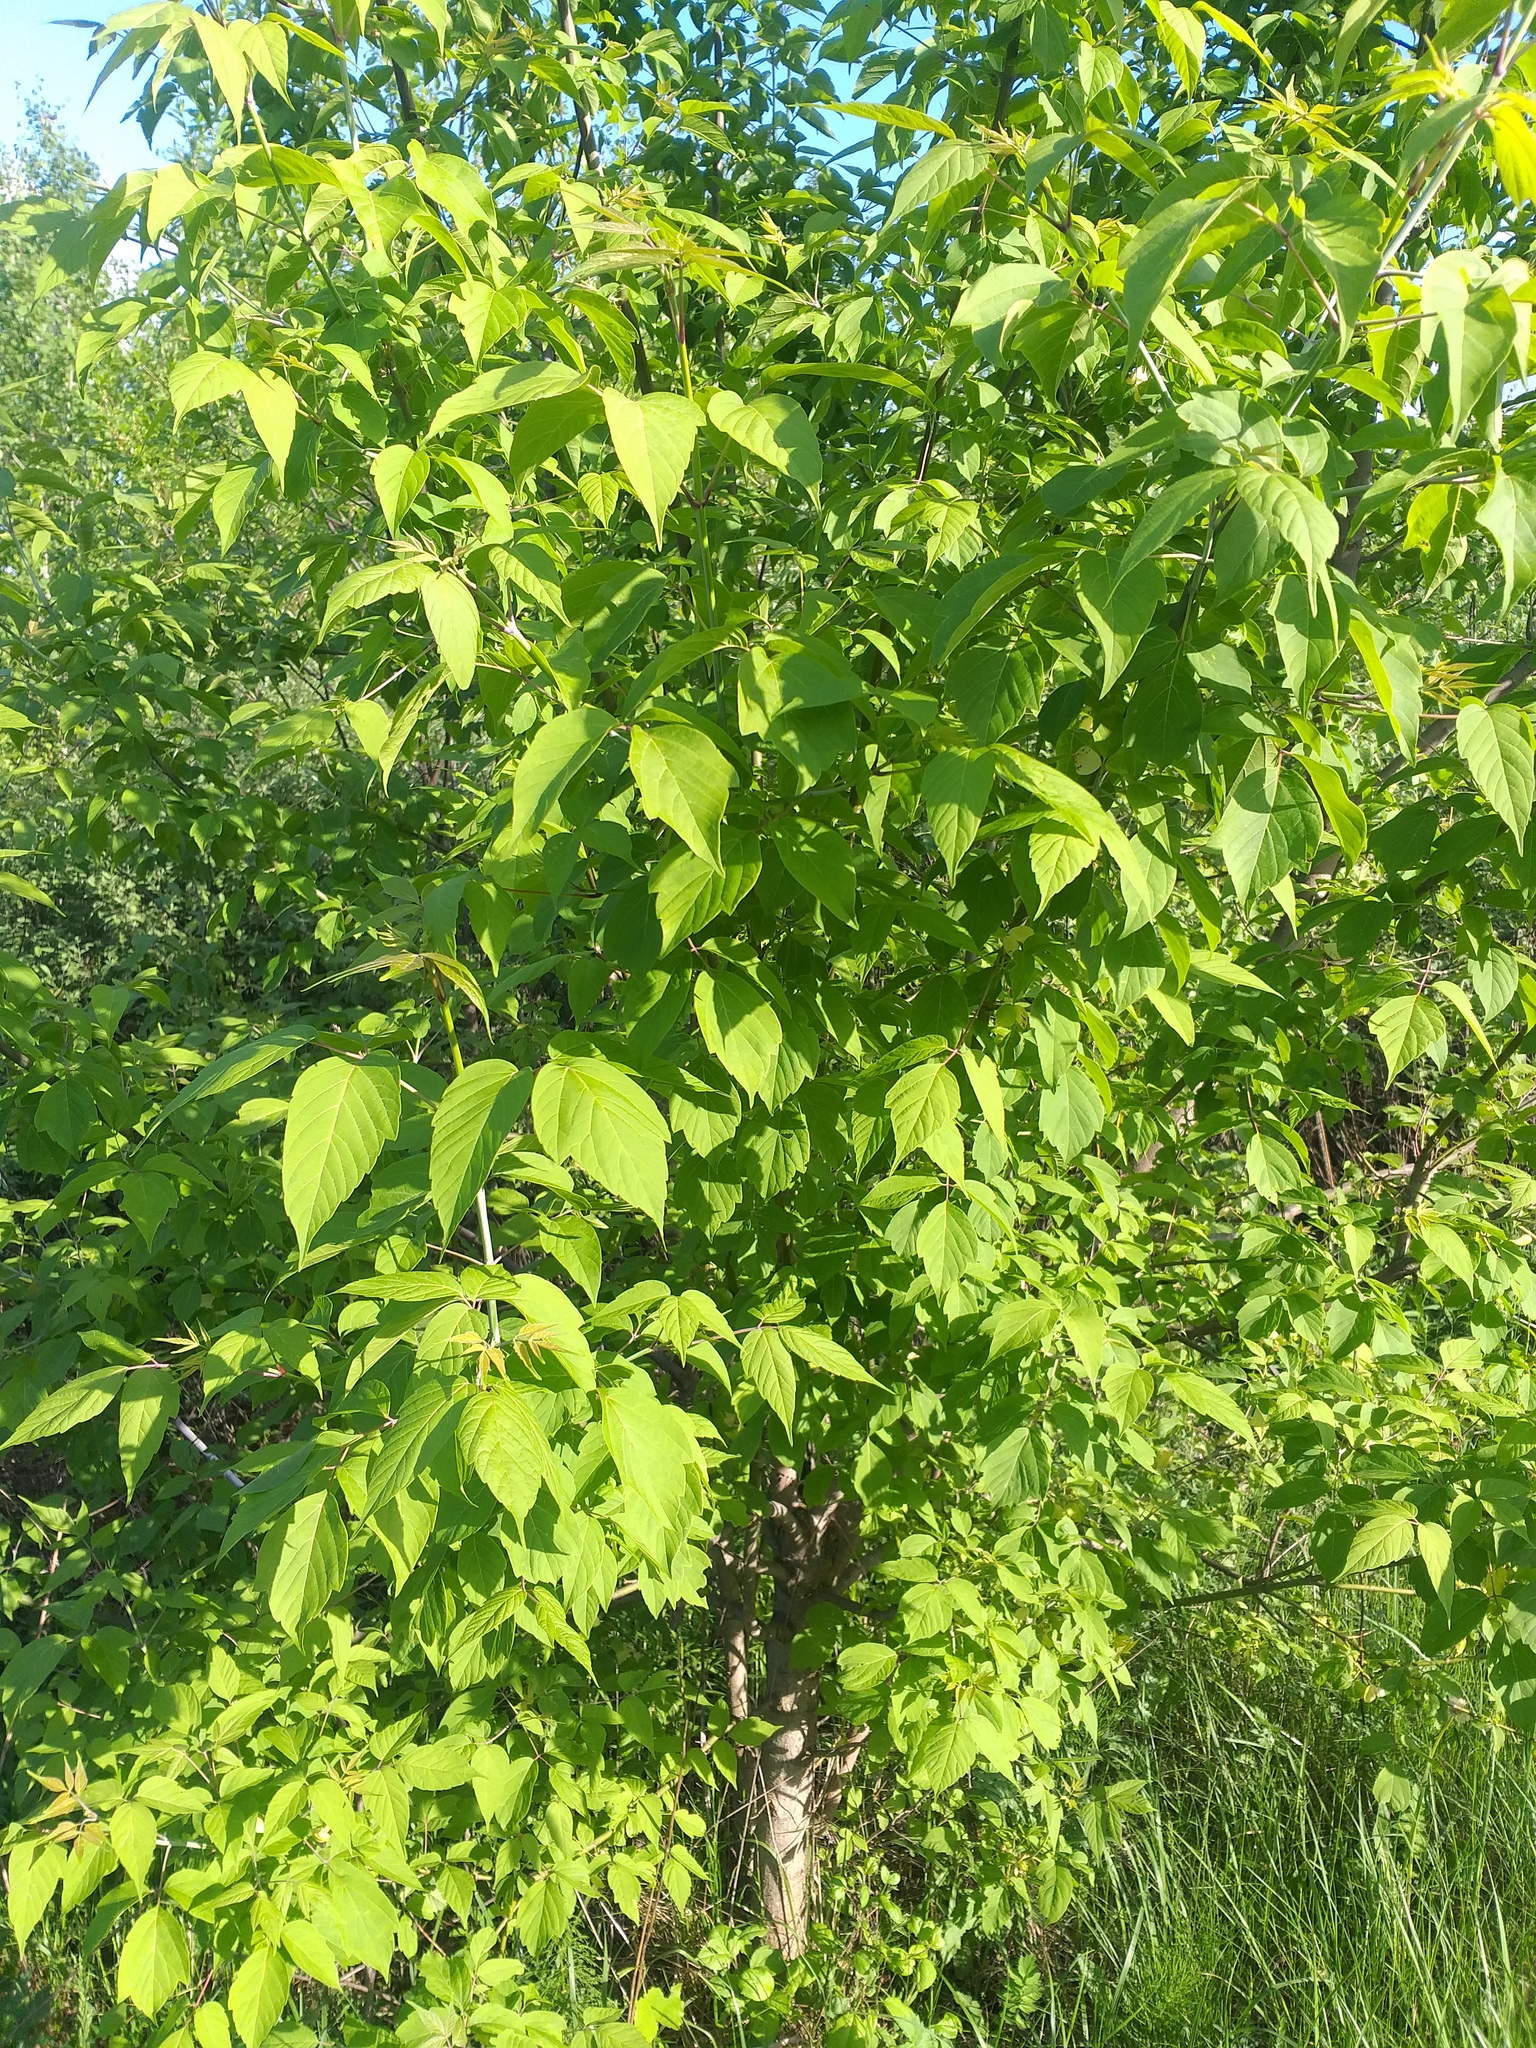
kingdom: Plantae
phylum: Tracheophyta
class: Magnoliopsida
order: Sapindales
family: Sapindaceae
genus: Acer
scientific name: Acer negundo
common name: Ashleaf maple
